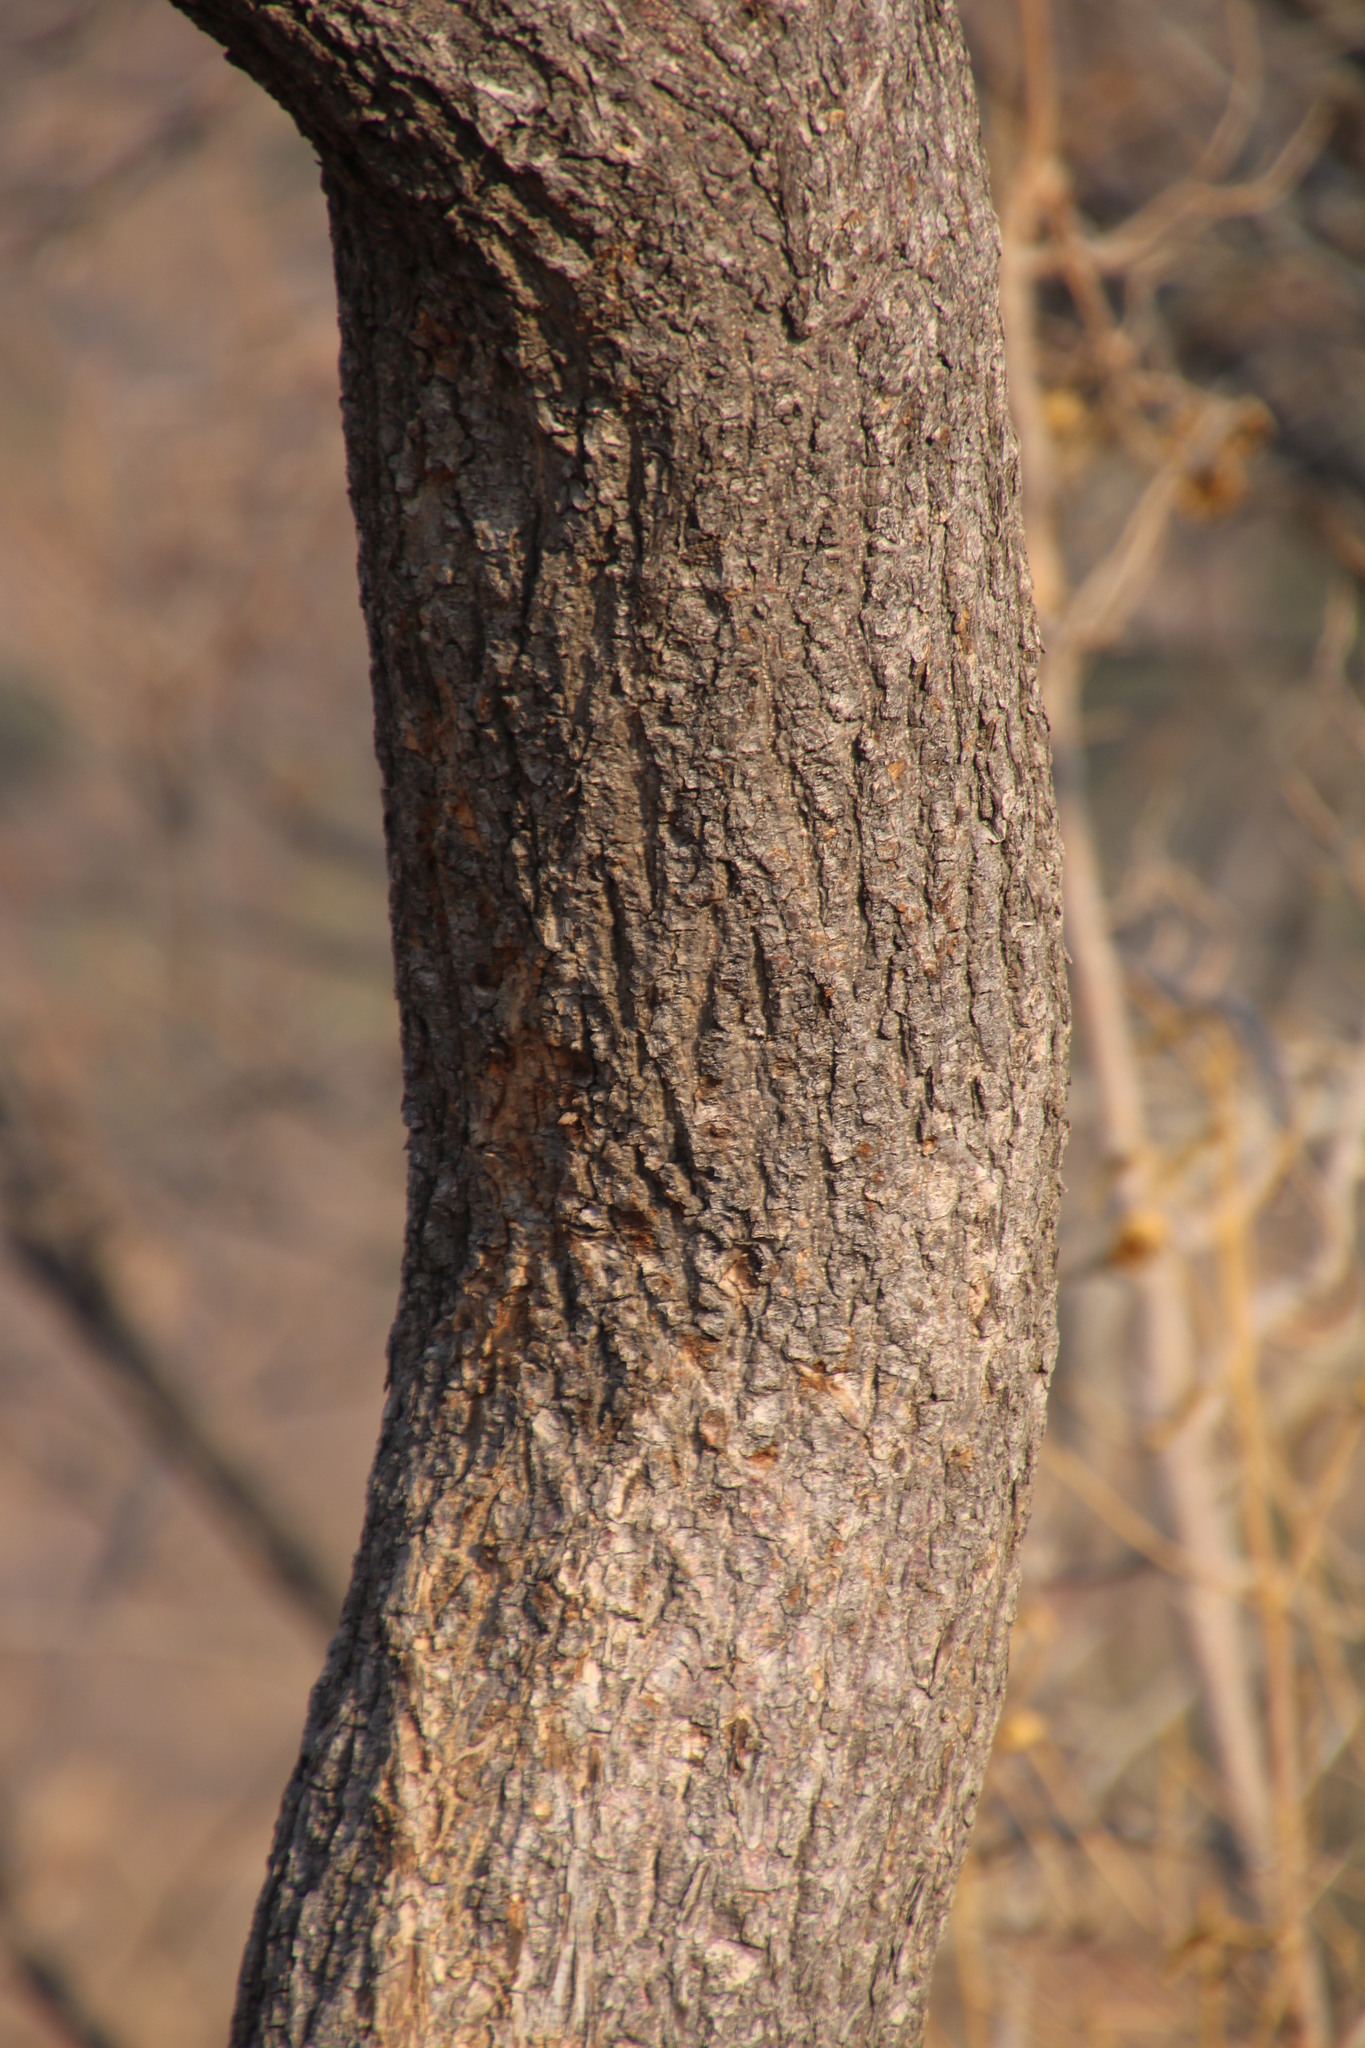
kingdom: Plantae
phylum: Tracheophyta
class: Magnoliopsida
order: Sapindales
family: Anacardiaceae
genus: Lannea
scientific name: Lannea discolor
